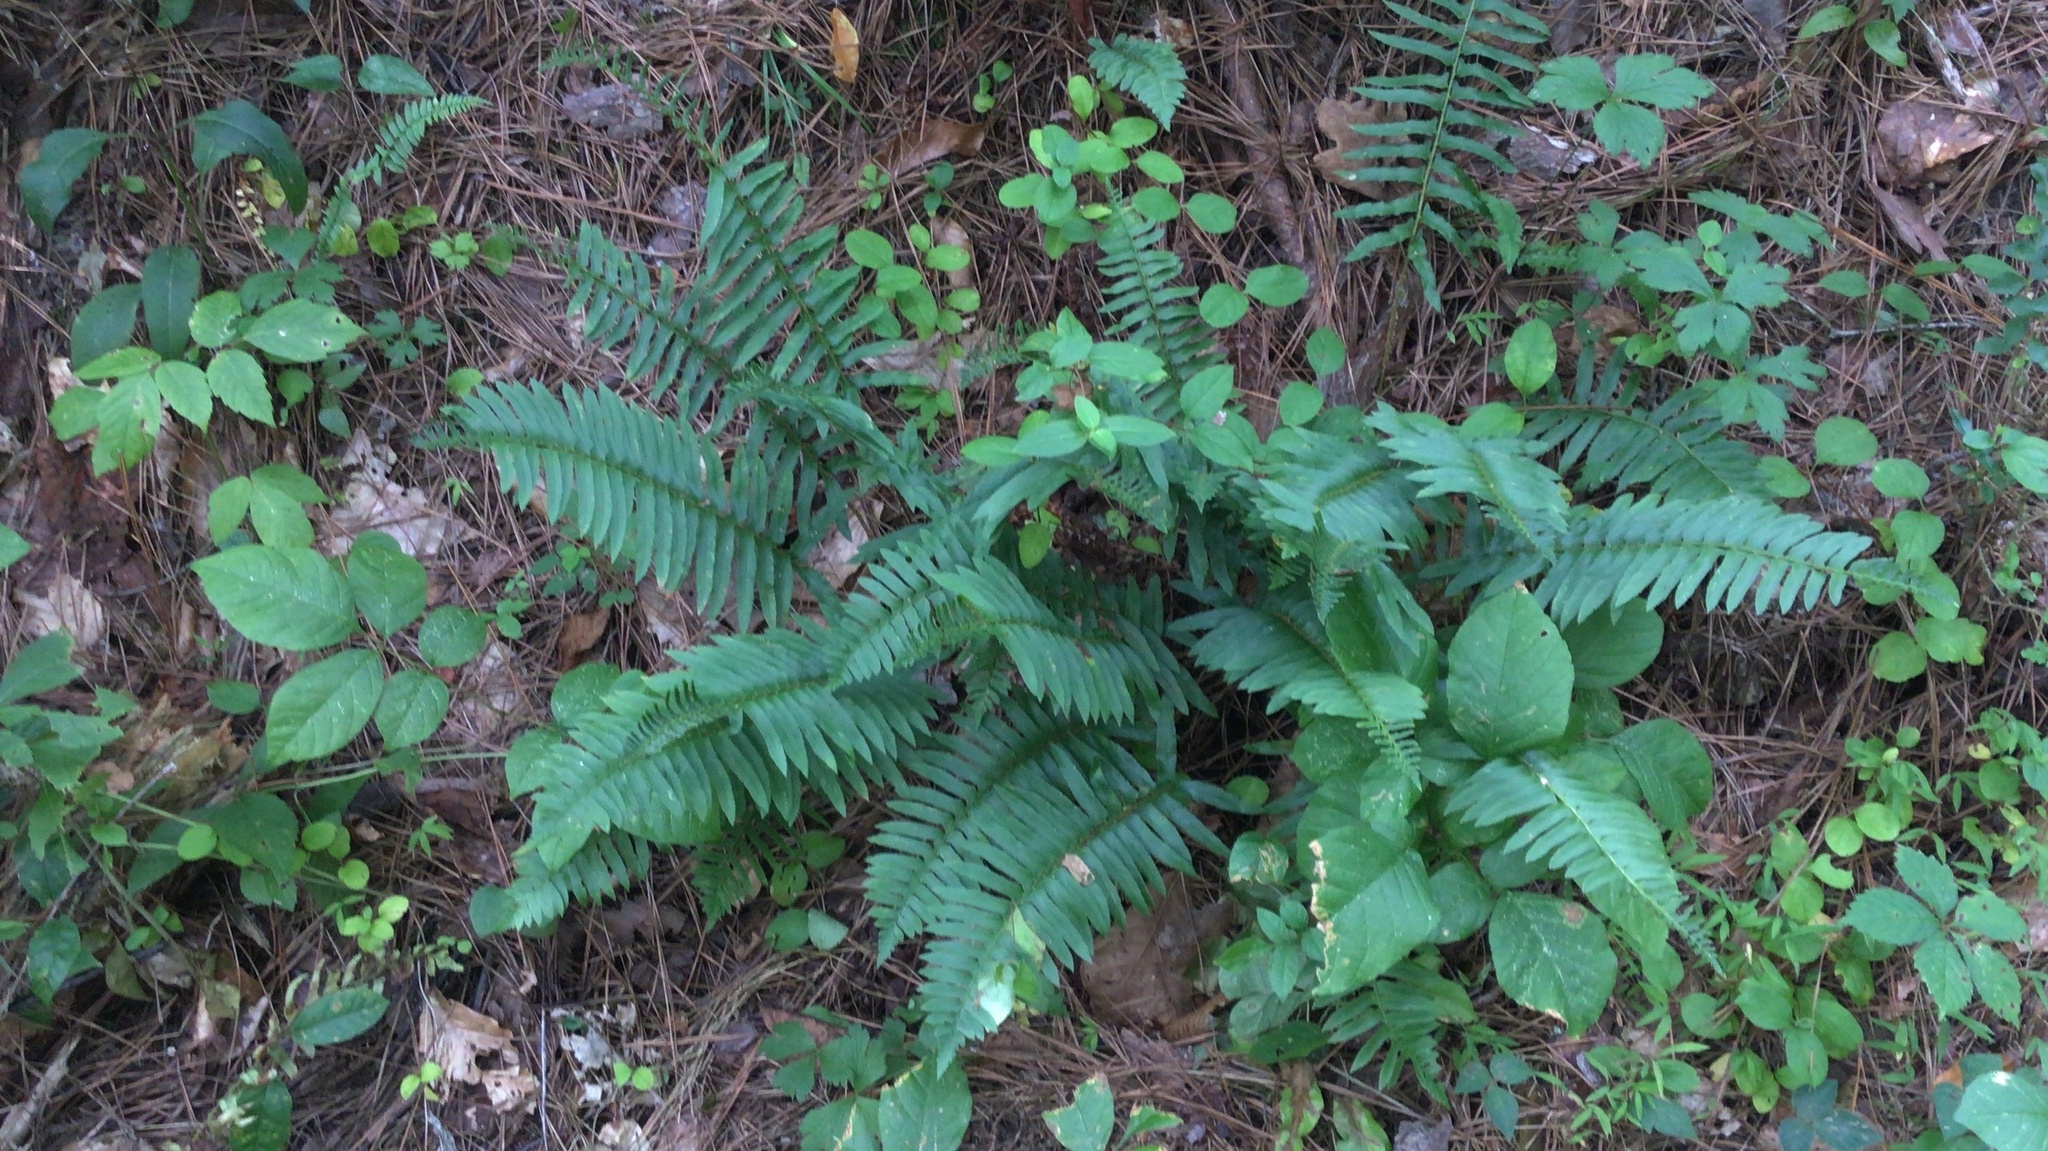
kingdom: Plantae
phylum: Tracheophyta
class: Polypodiopsida
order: Polypodiales
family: Dryopteridaceae
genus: Polystichum
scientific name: Polystichum acrostichoides
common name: Christmas fern
